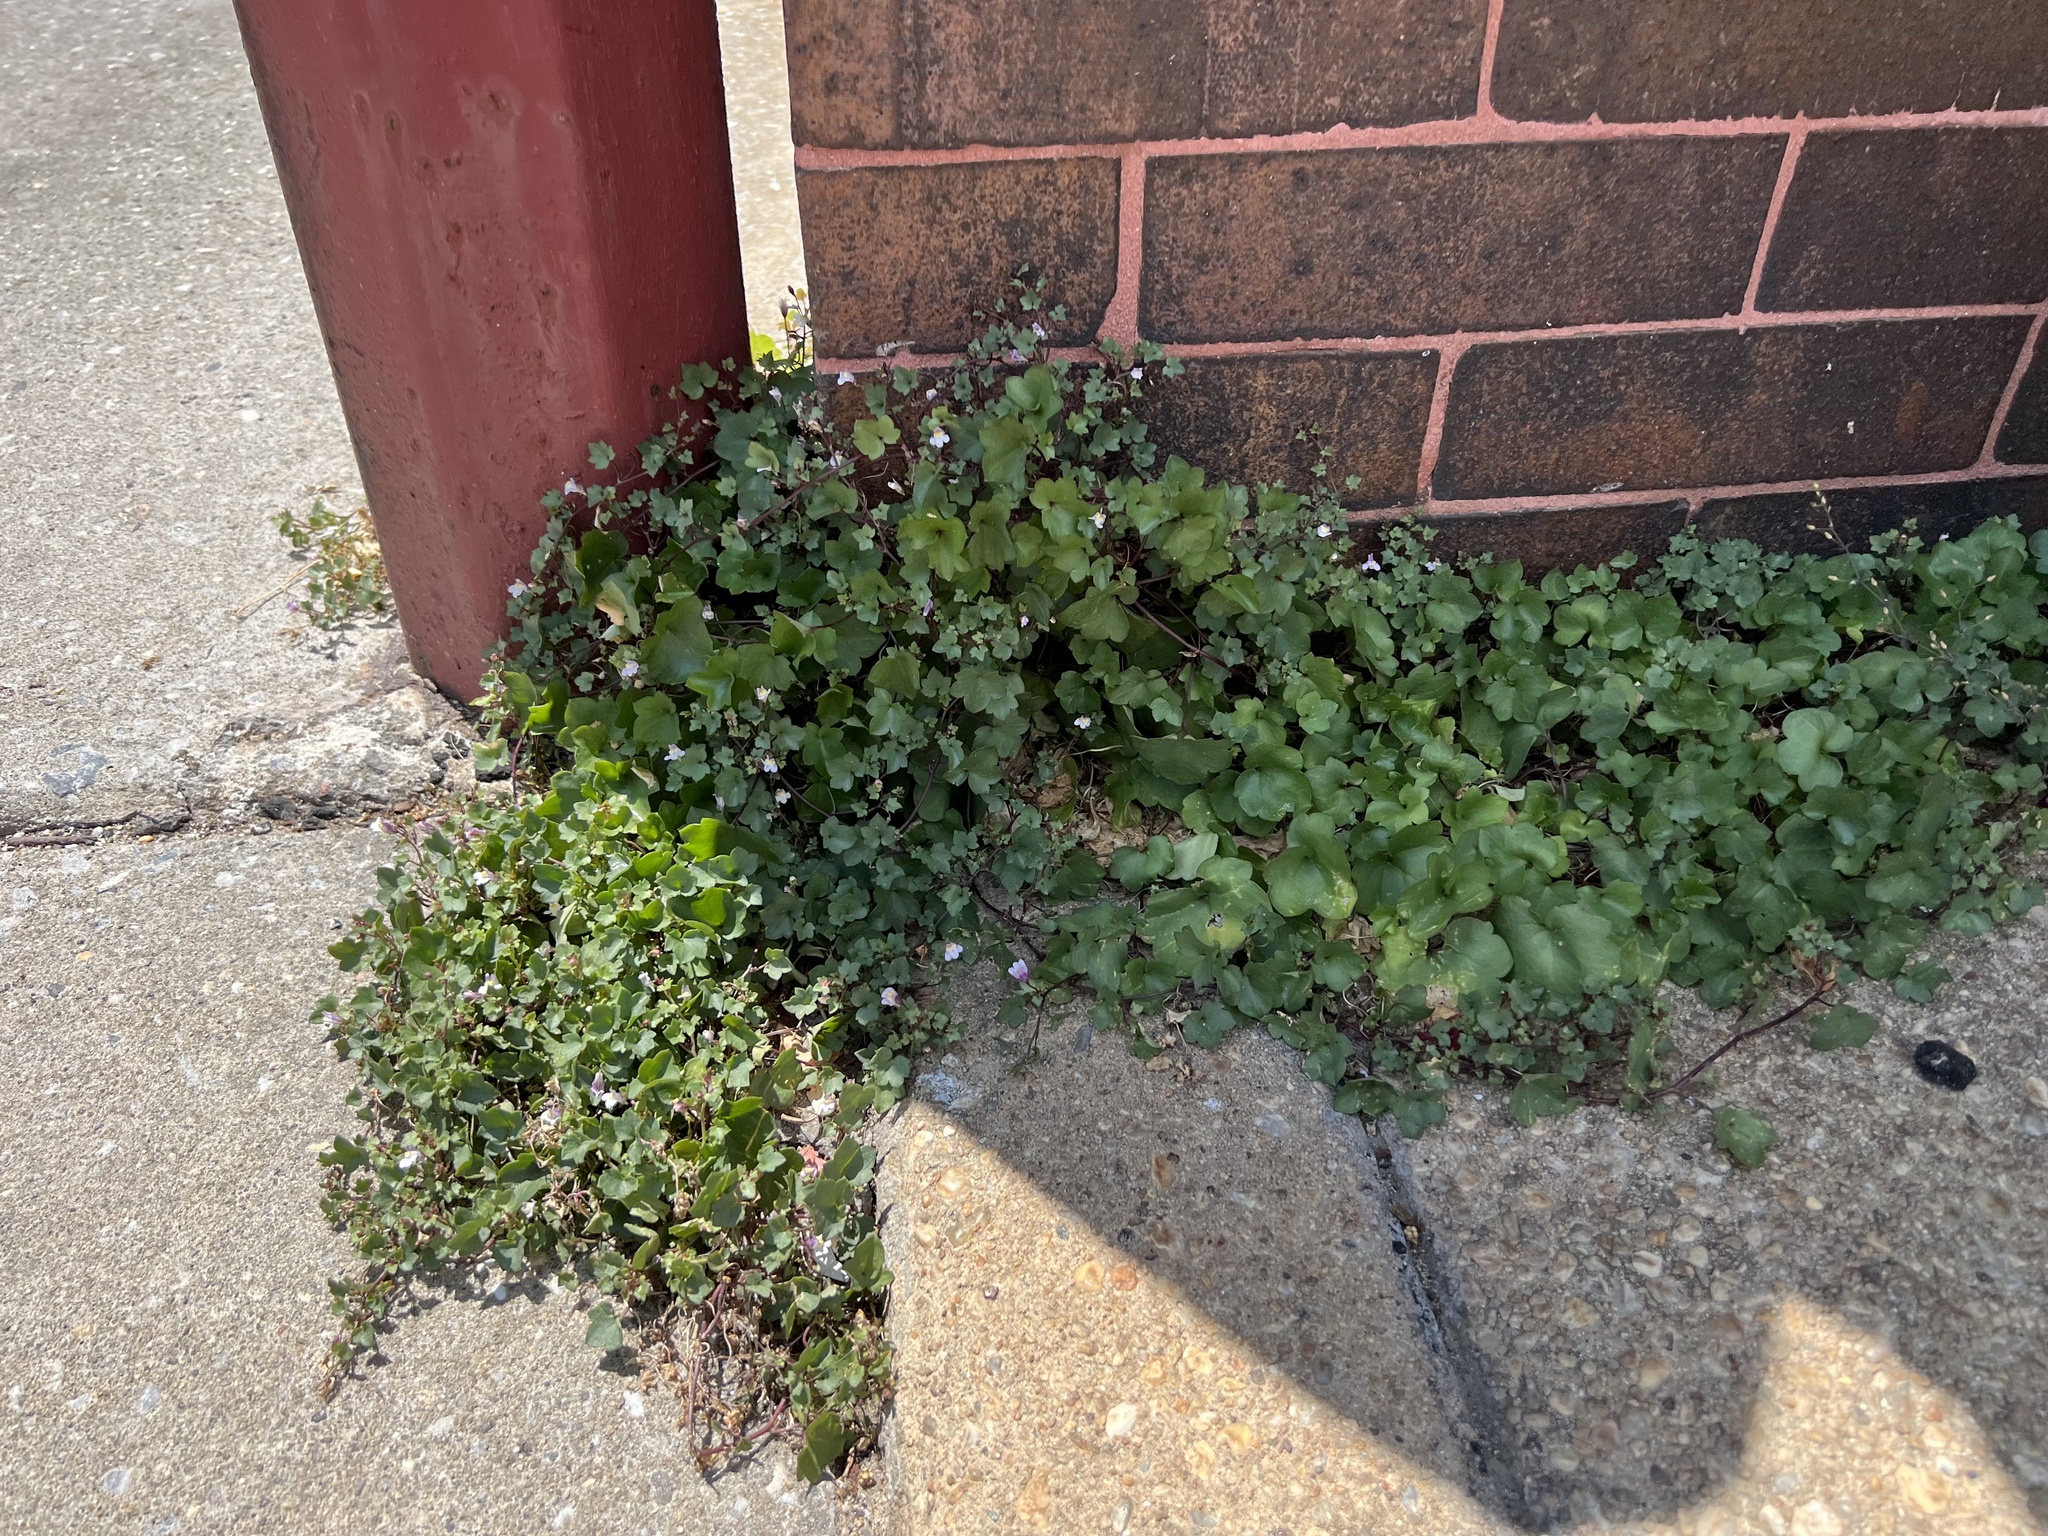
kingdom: Plantae
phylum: Tracheophyta
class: Magnoliopsida
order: Lamiales
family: Plantaginaceae
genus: Cymbalaria
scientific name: Cymbalaria muralis
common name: Ivy-leaved toadflax
